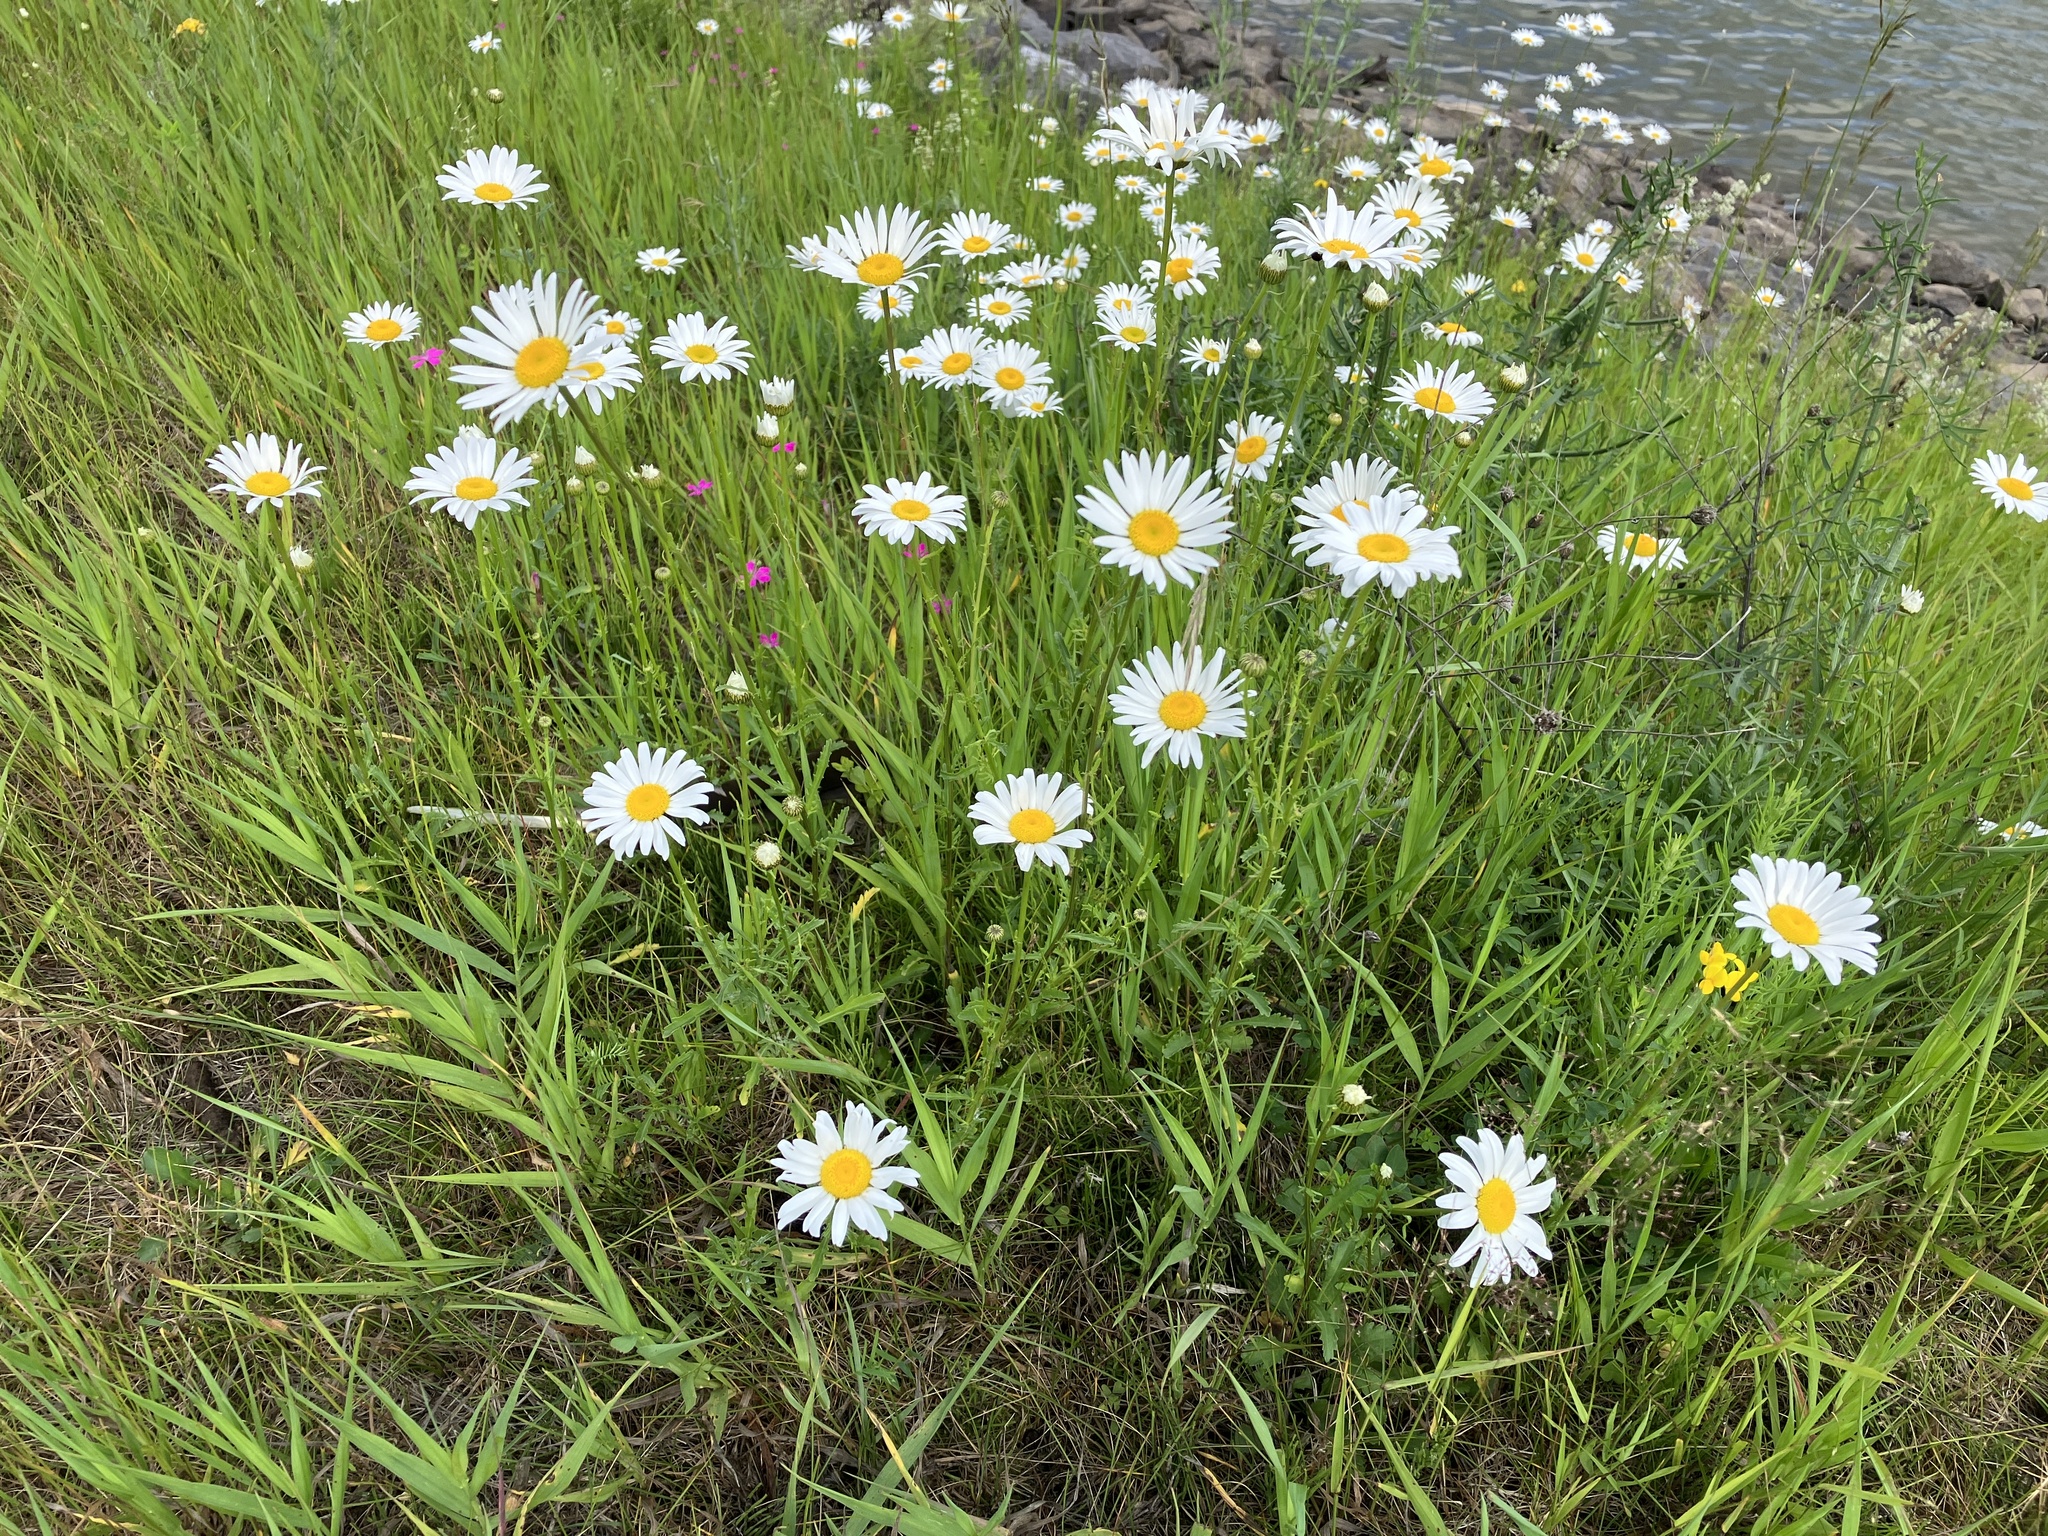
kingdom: Plantae
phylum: Tracheophyta
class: Magnoliopsida
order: Asterales
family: Asteraceae
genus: Leucanthemum
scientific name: Leucanthemum vulgare
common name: Oxeye daisy
